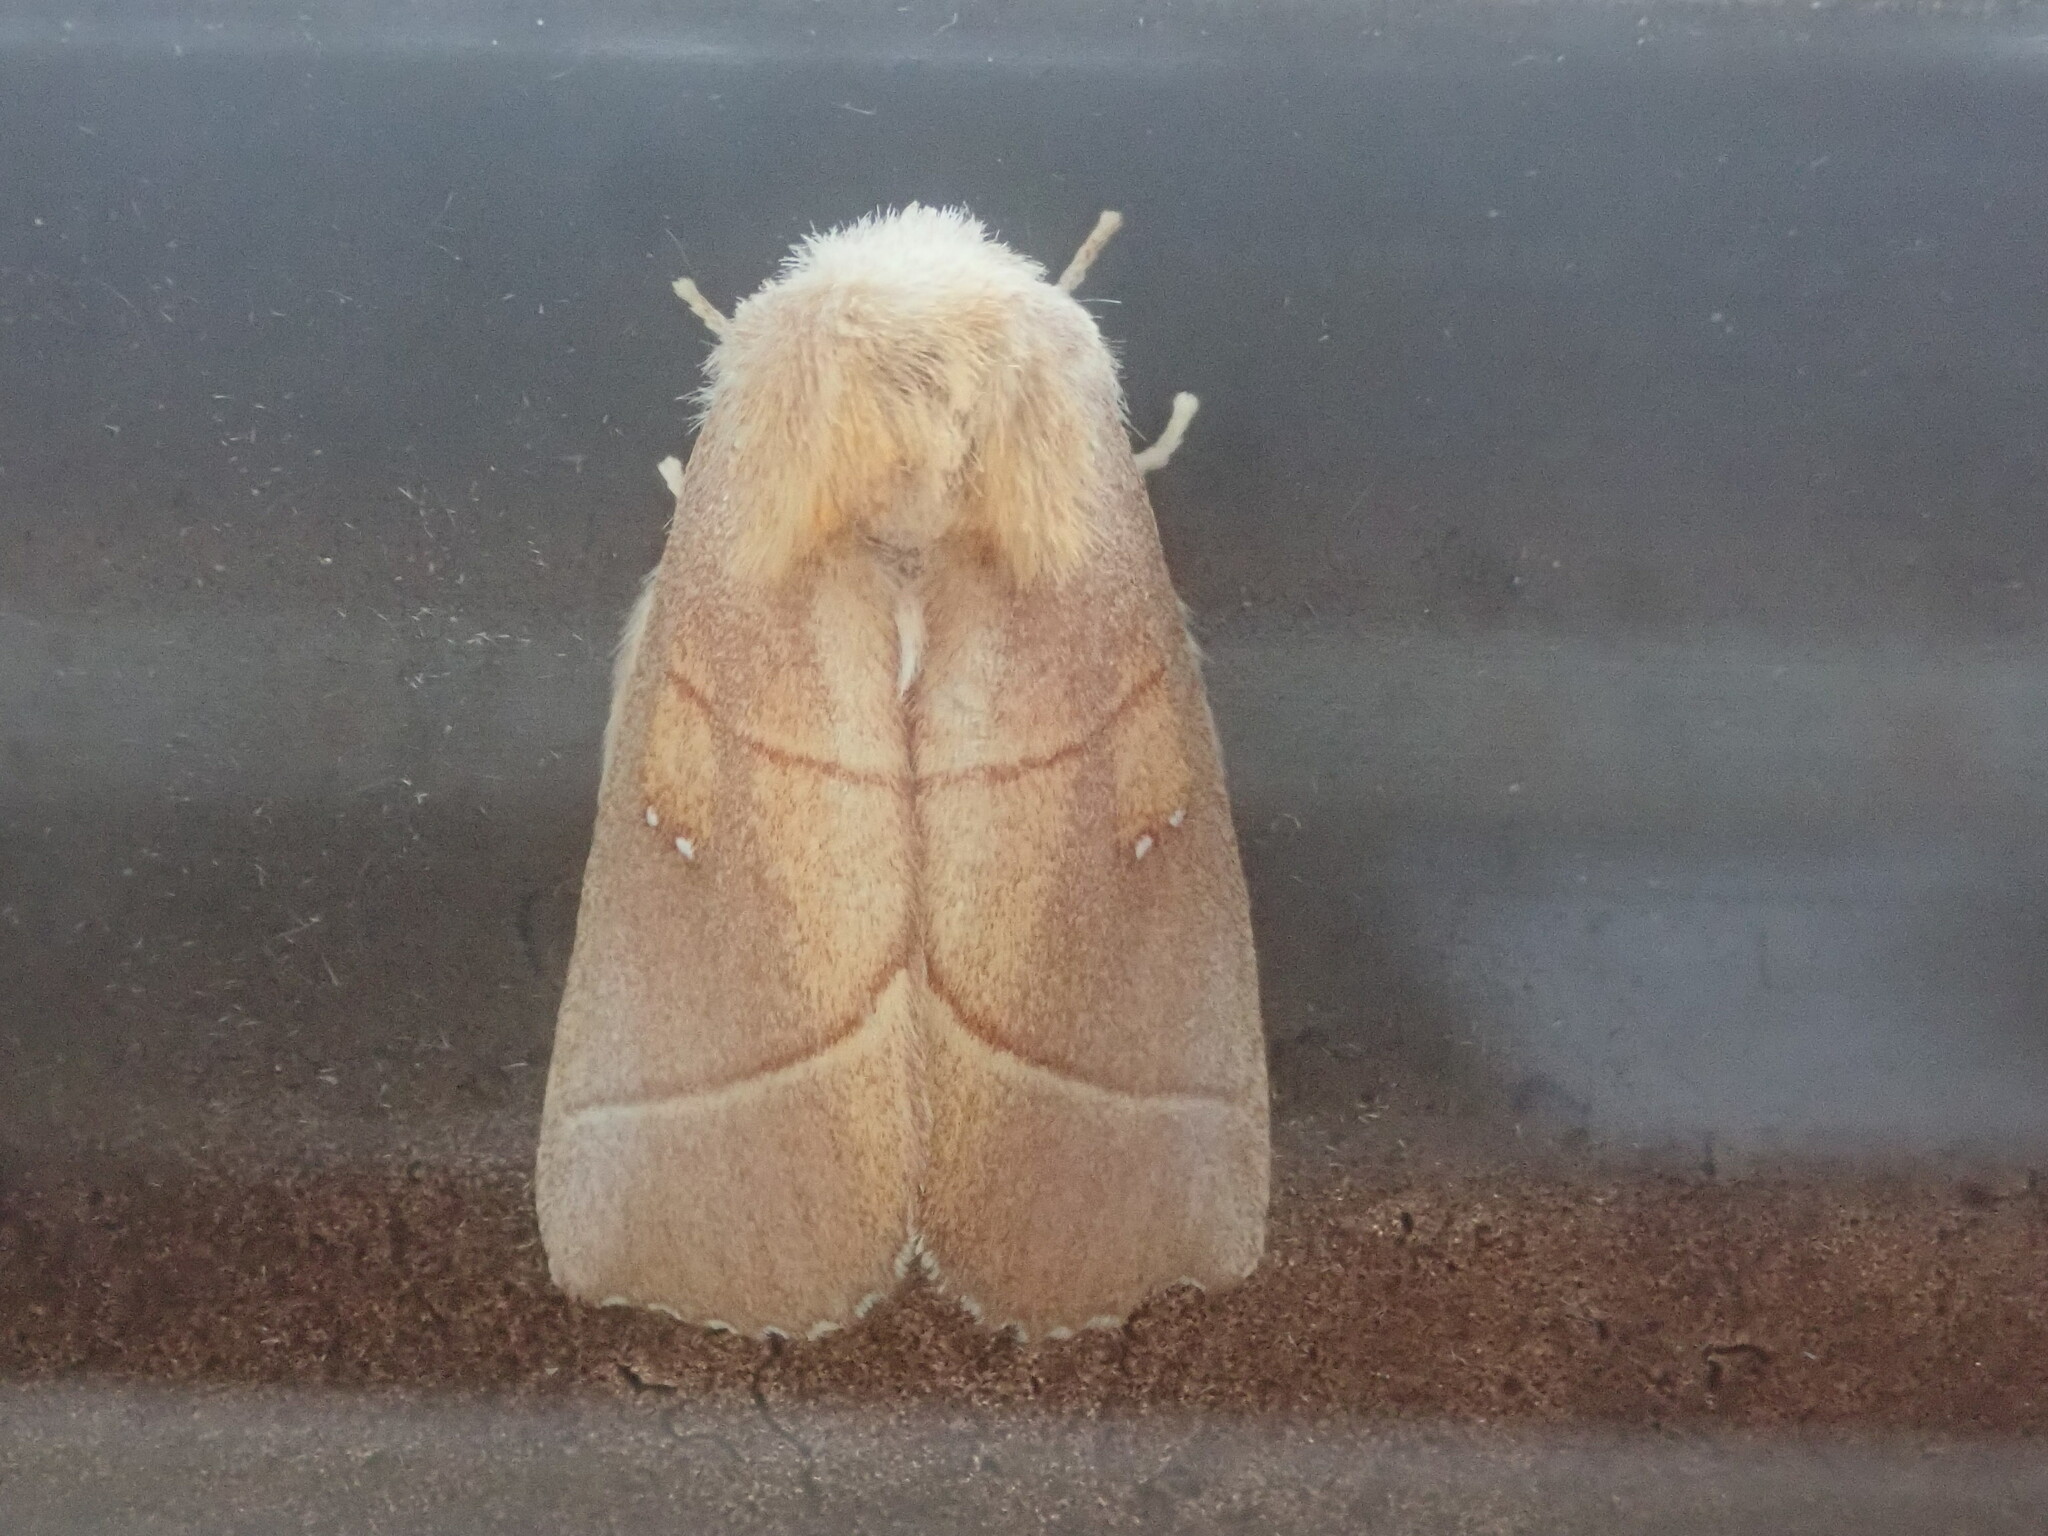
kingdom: Animalia
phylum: Arthropoda
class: Insecta
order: Lepidoptera
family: Notodontidae
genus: Nadata
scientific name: Nadata gibbosa
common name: White-dotted prominent
